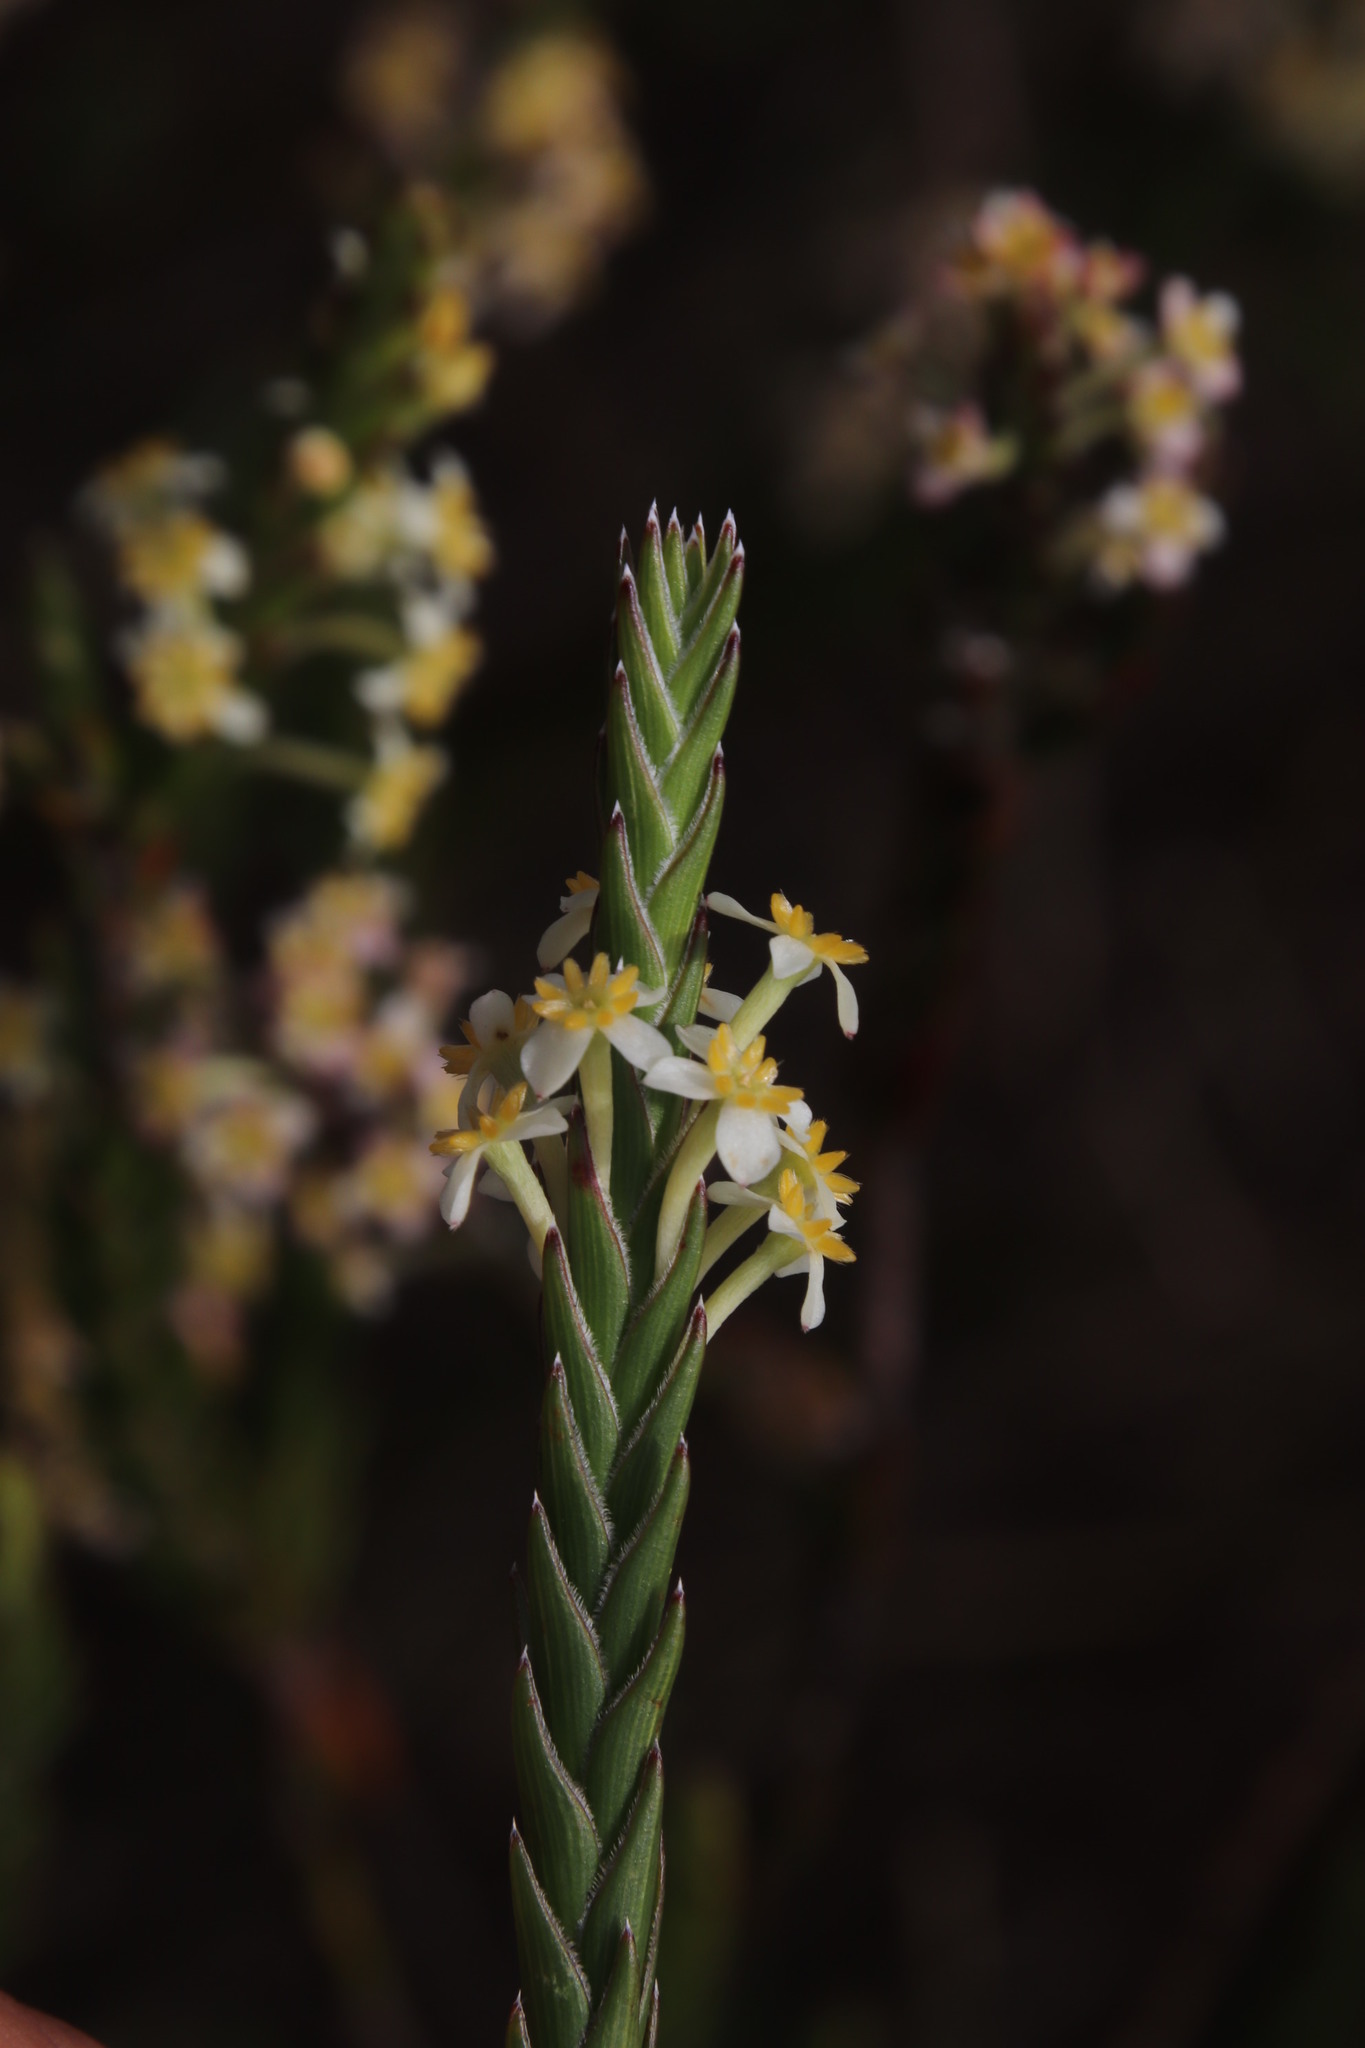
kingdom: Plantae
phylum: Tracheophyta
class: Magnoliopsida
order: Malvales
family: Thymelaeaceae
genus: Struthiola
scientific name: Struthiola ciliata
